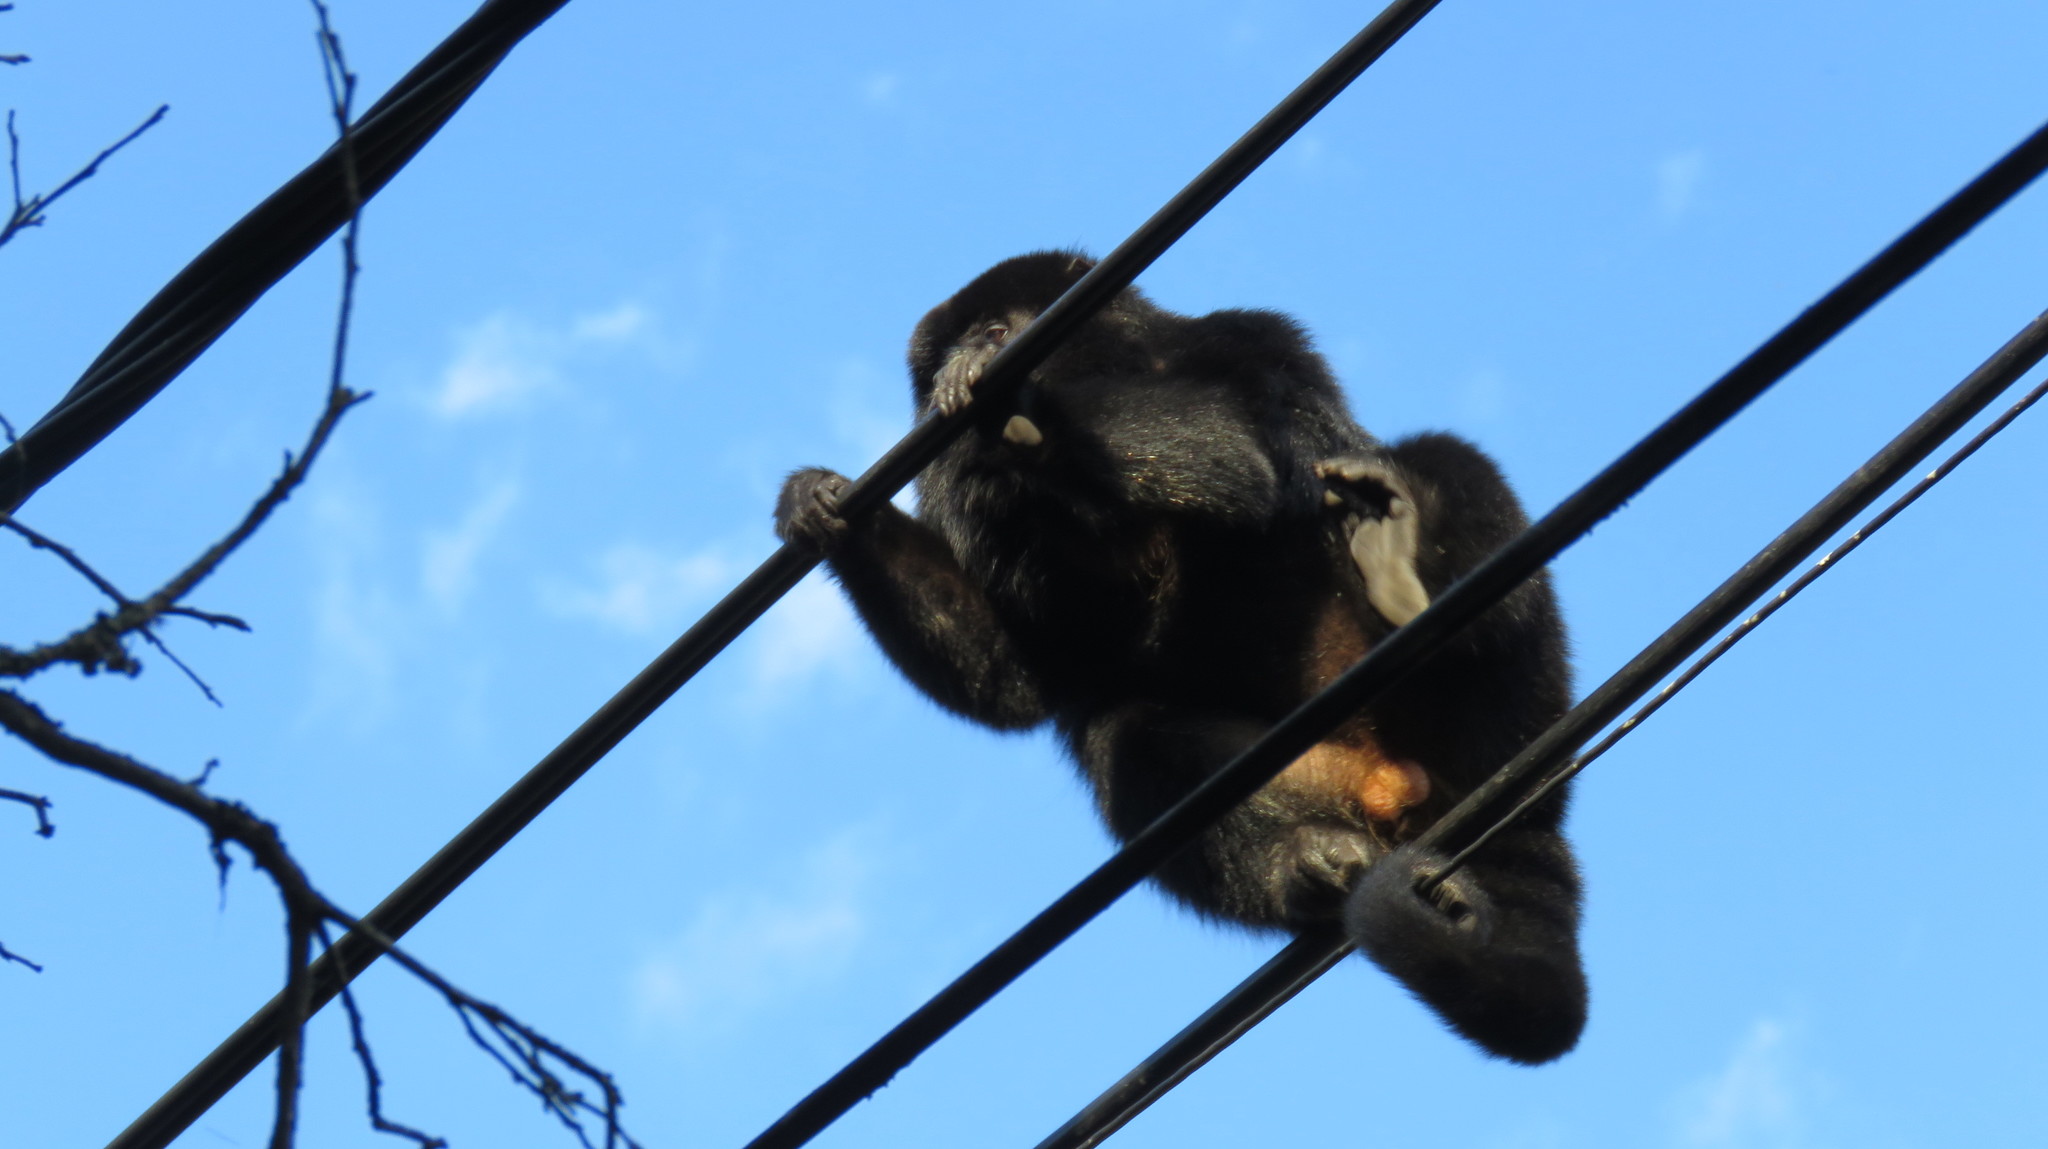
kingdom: Animalia
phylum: Chordata
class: Mammalia
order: Primates
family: Atelidae
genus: Alouatta
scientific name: Alouatta caraya
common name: Black howler
